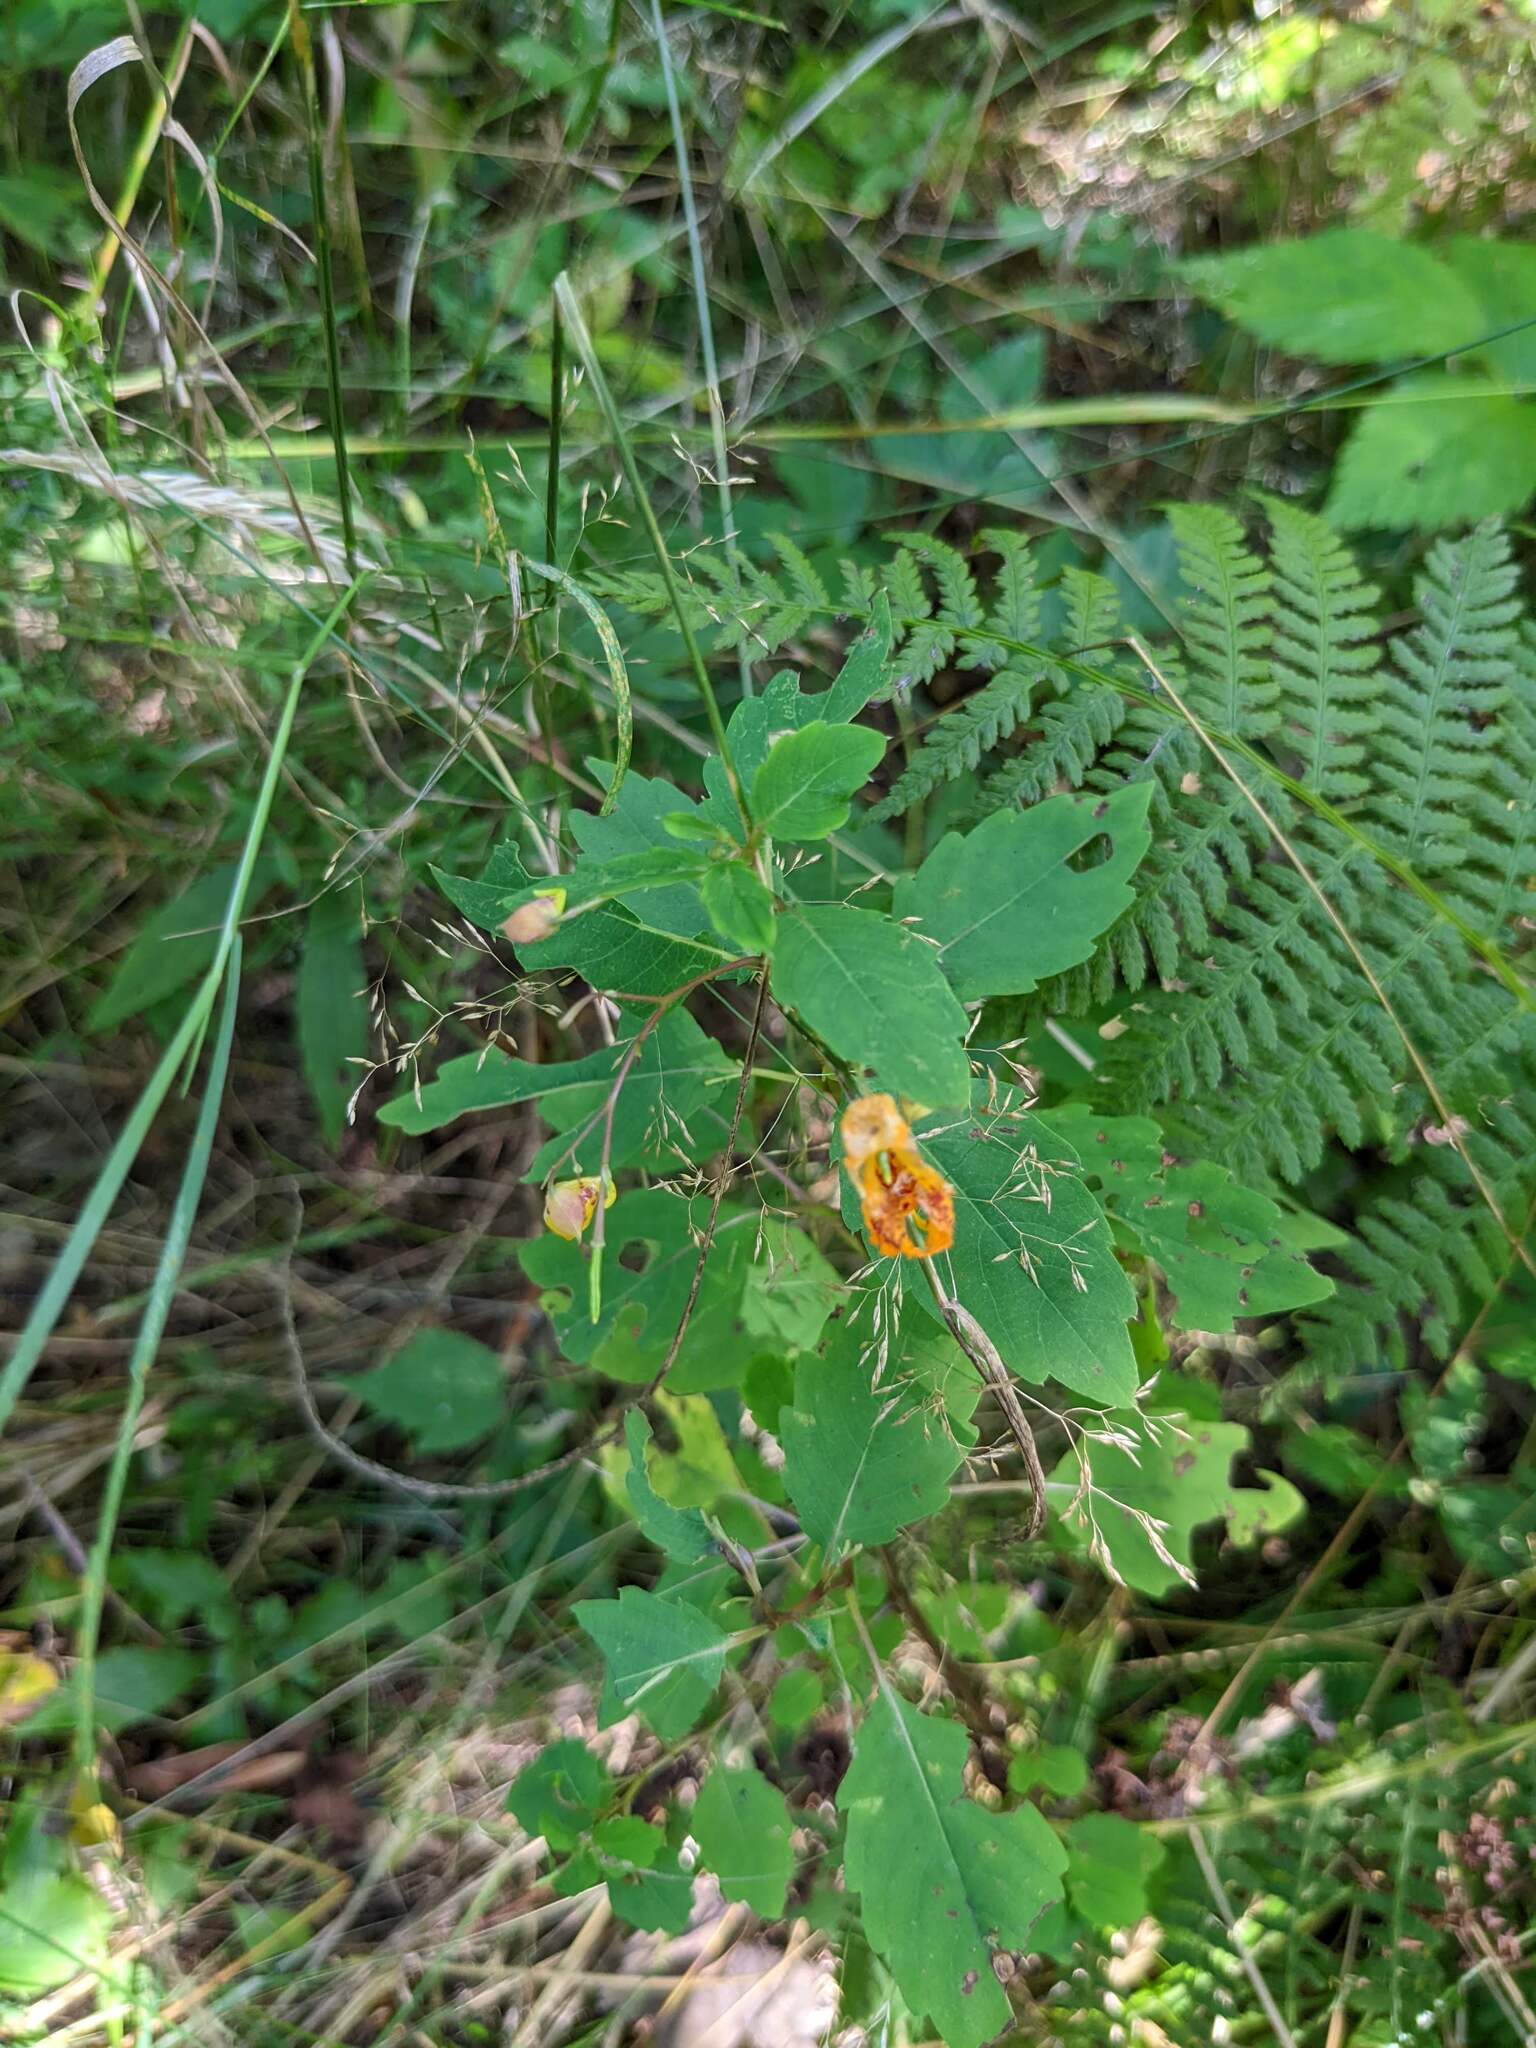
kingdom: Plantae
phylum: Tracheophyta
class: Magnoliopsida
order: Ericales
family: Balsaminaceae
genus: Impatiens
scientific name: Impatiens capensis
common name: Orange balsam
